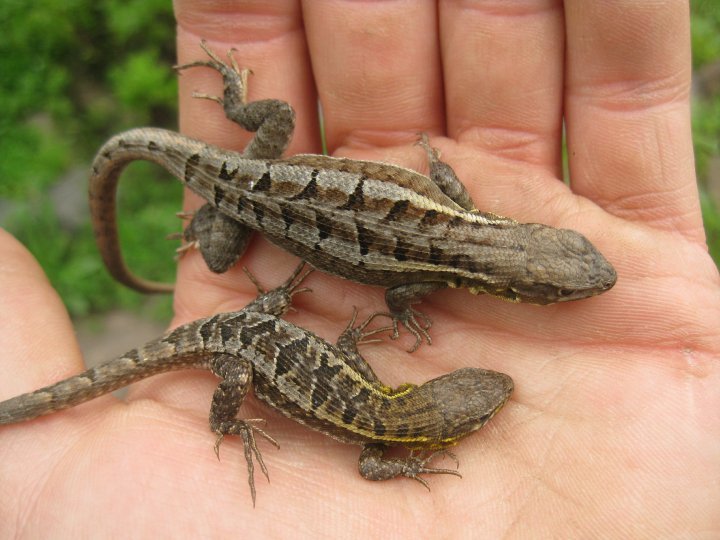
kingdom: Animalia
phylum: Chordata
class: Squamata
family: Tropiduridae
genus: Stenocercus
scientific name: Stenocercus ornatissimus
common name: Lesser ornate whorltail iguana
